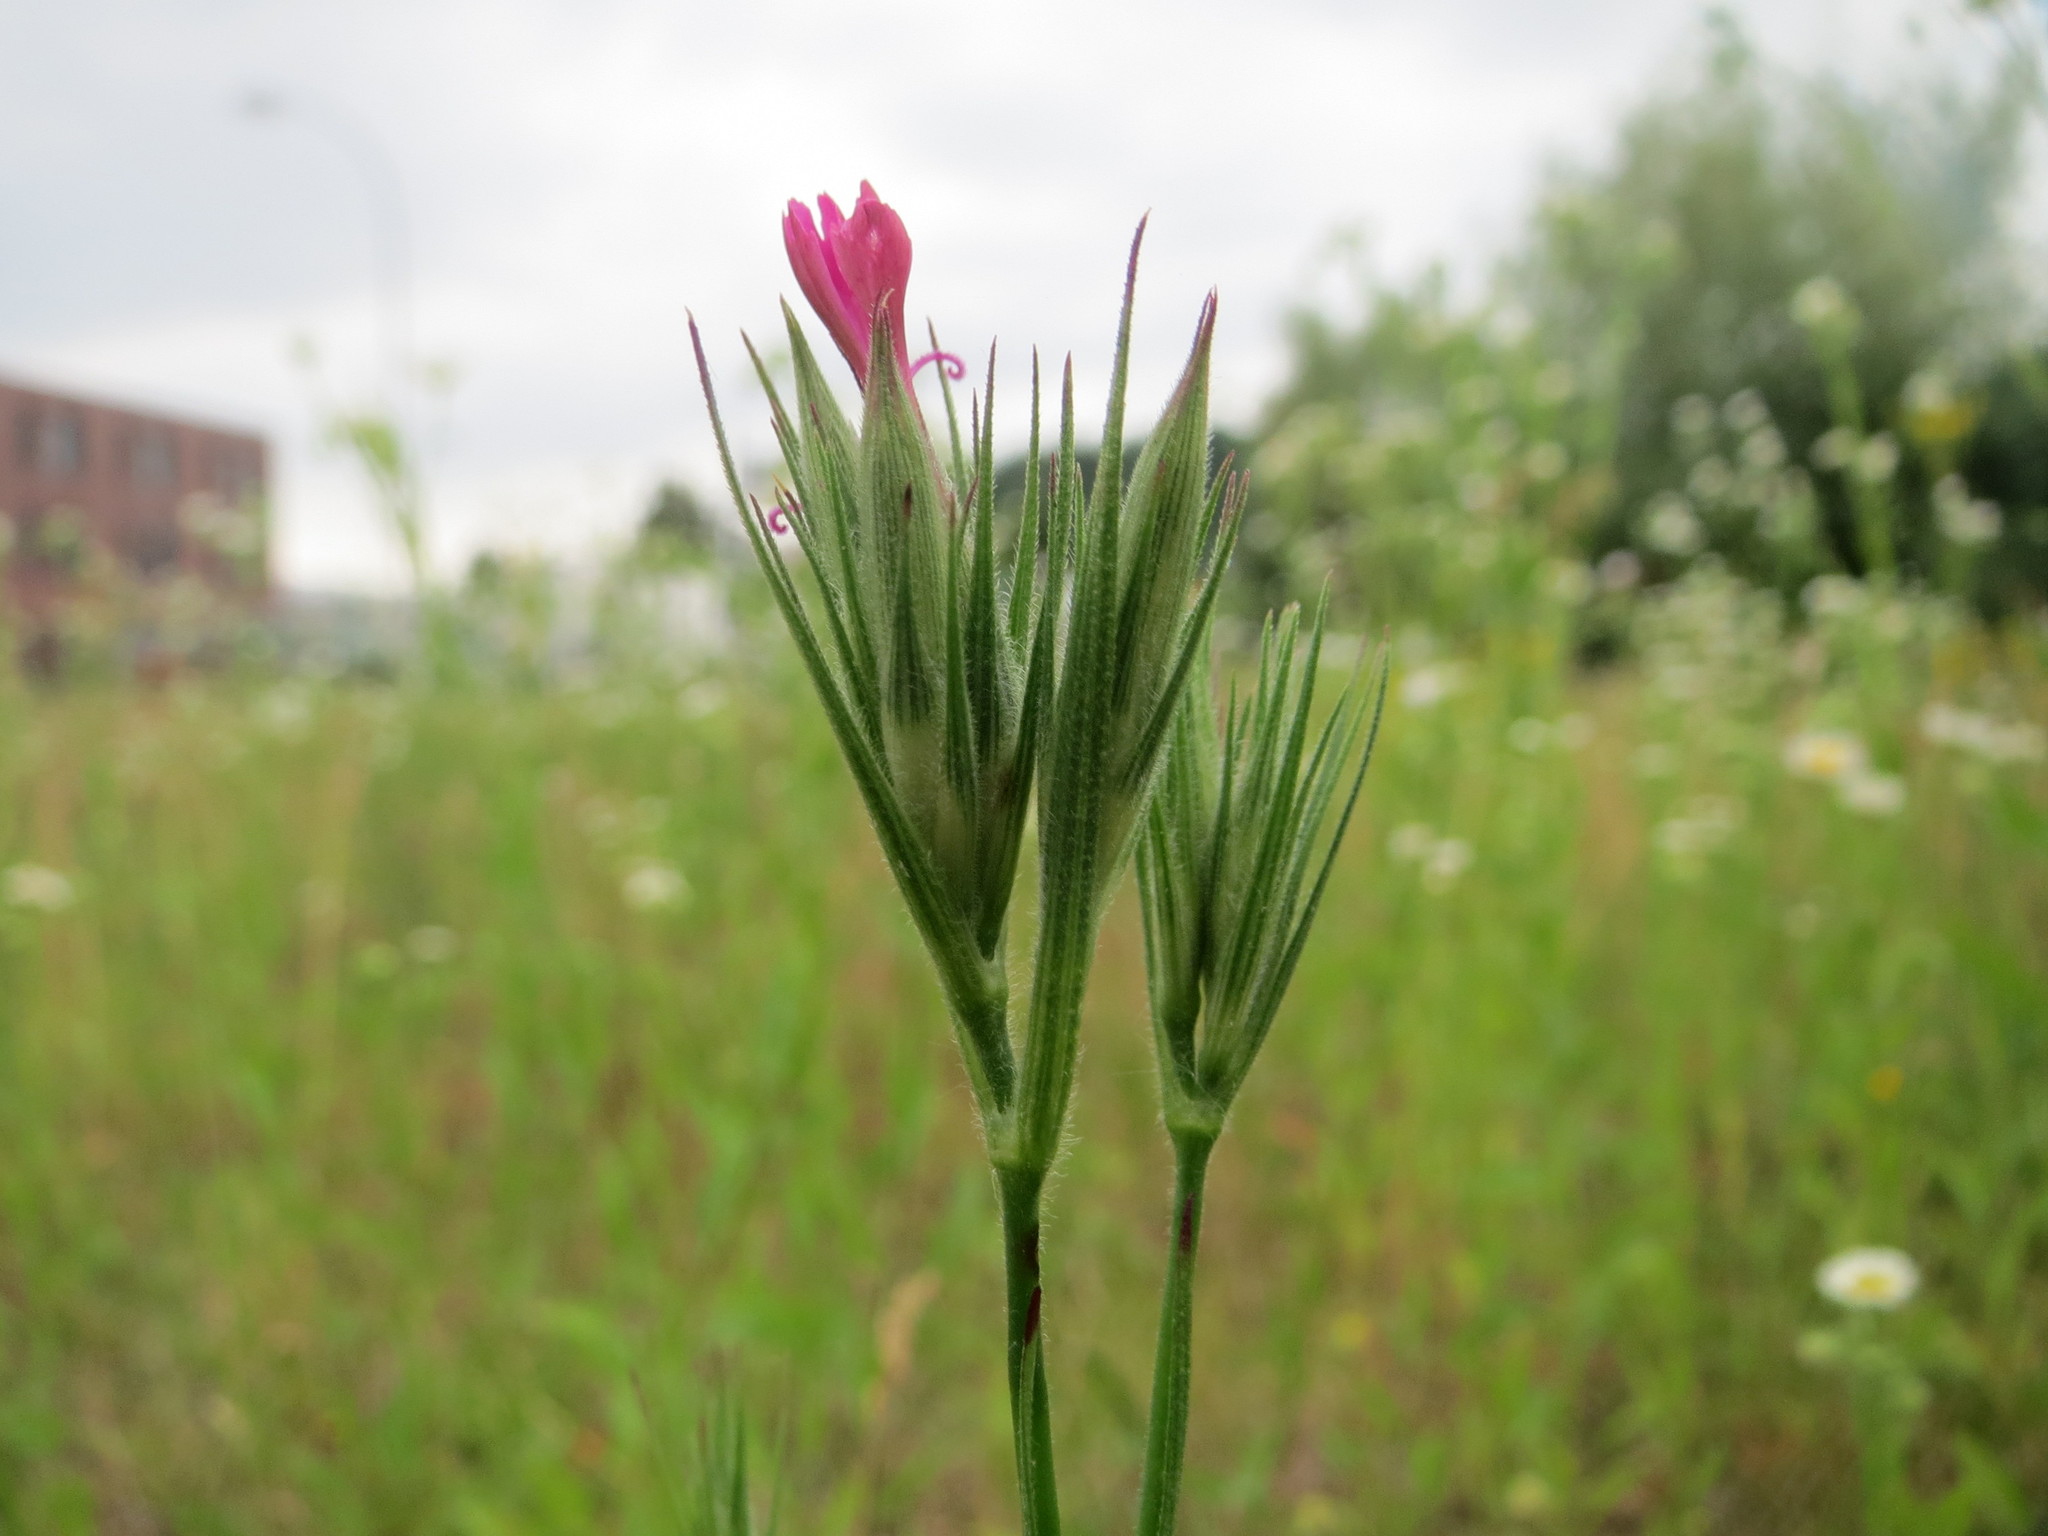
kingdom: Plantae
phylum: Tracheophyta
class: Magnoliopsida
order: Caryophyllales
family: Caryophyllaceae
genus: Dianthus
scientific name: Dianthus armeria
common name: Deptford pink
